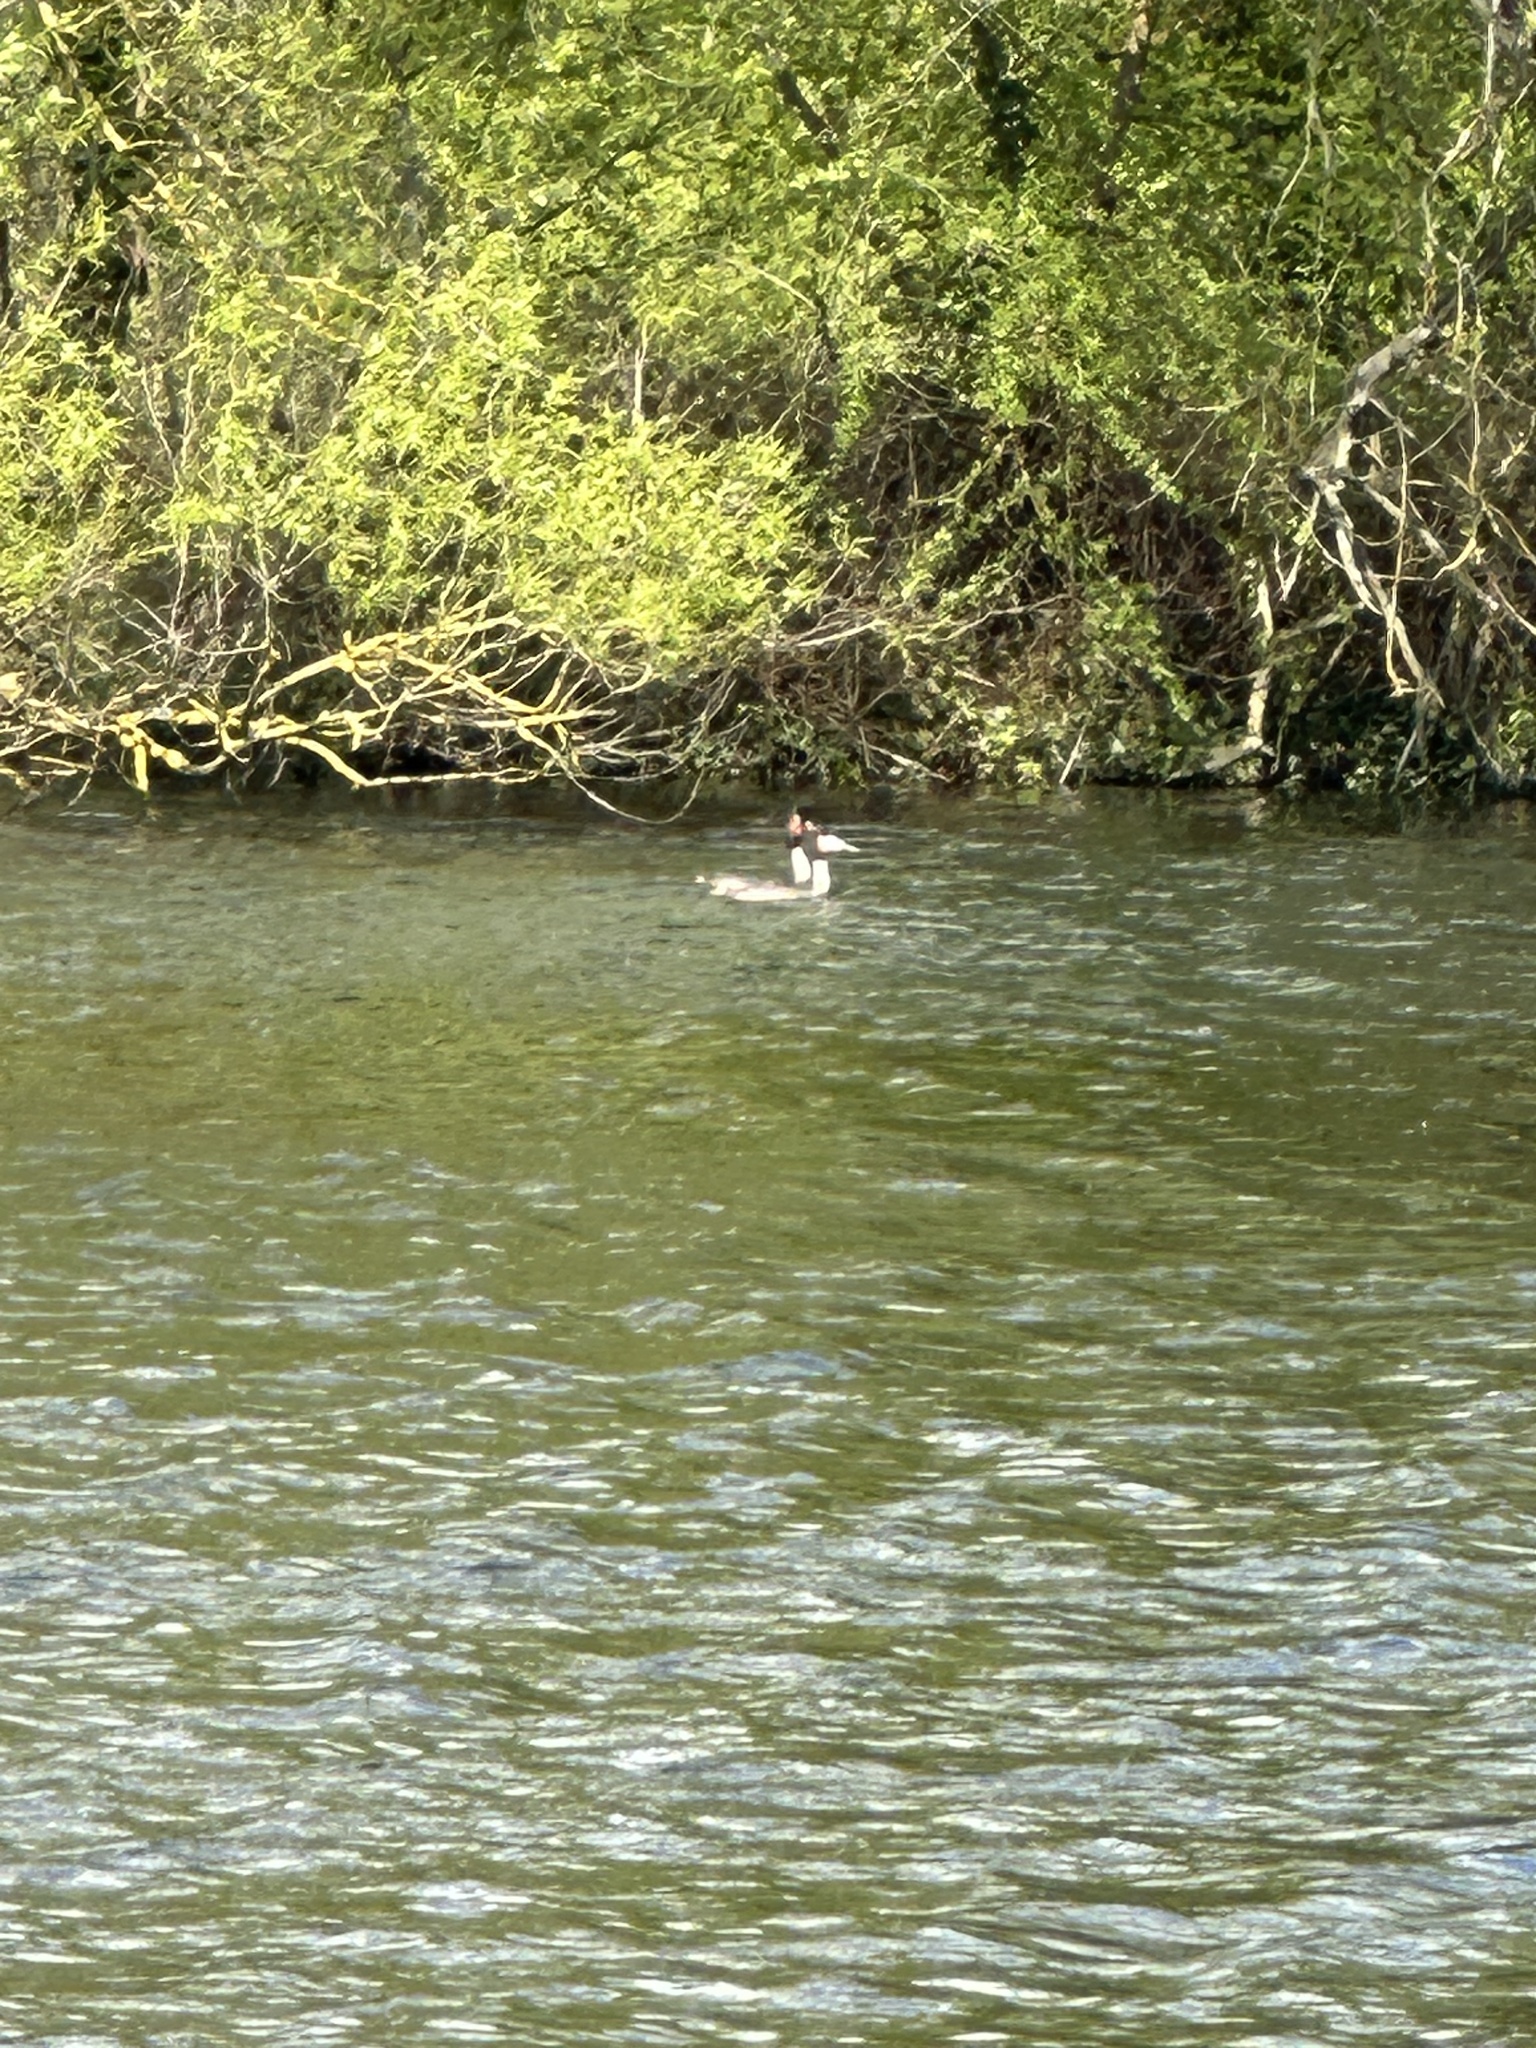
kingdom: Animalia
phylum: Chordata
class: Aves
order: Podicipediformes
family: Podicipedidae
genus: Podiceps
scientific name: Podiceps cristatus
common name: Great crested grebe
